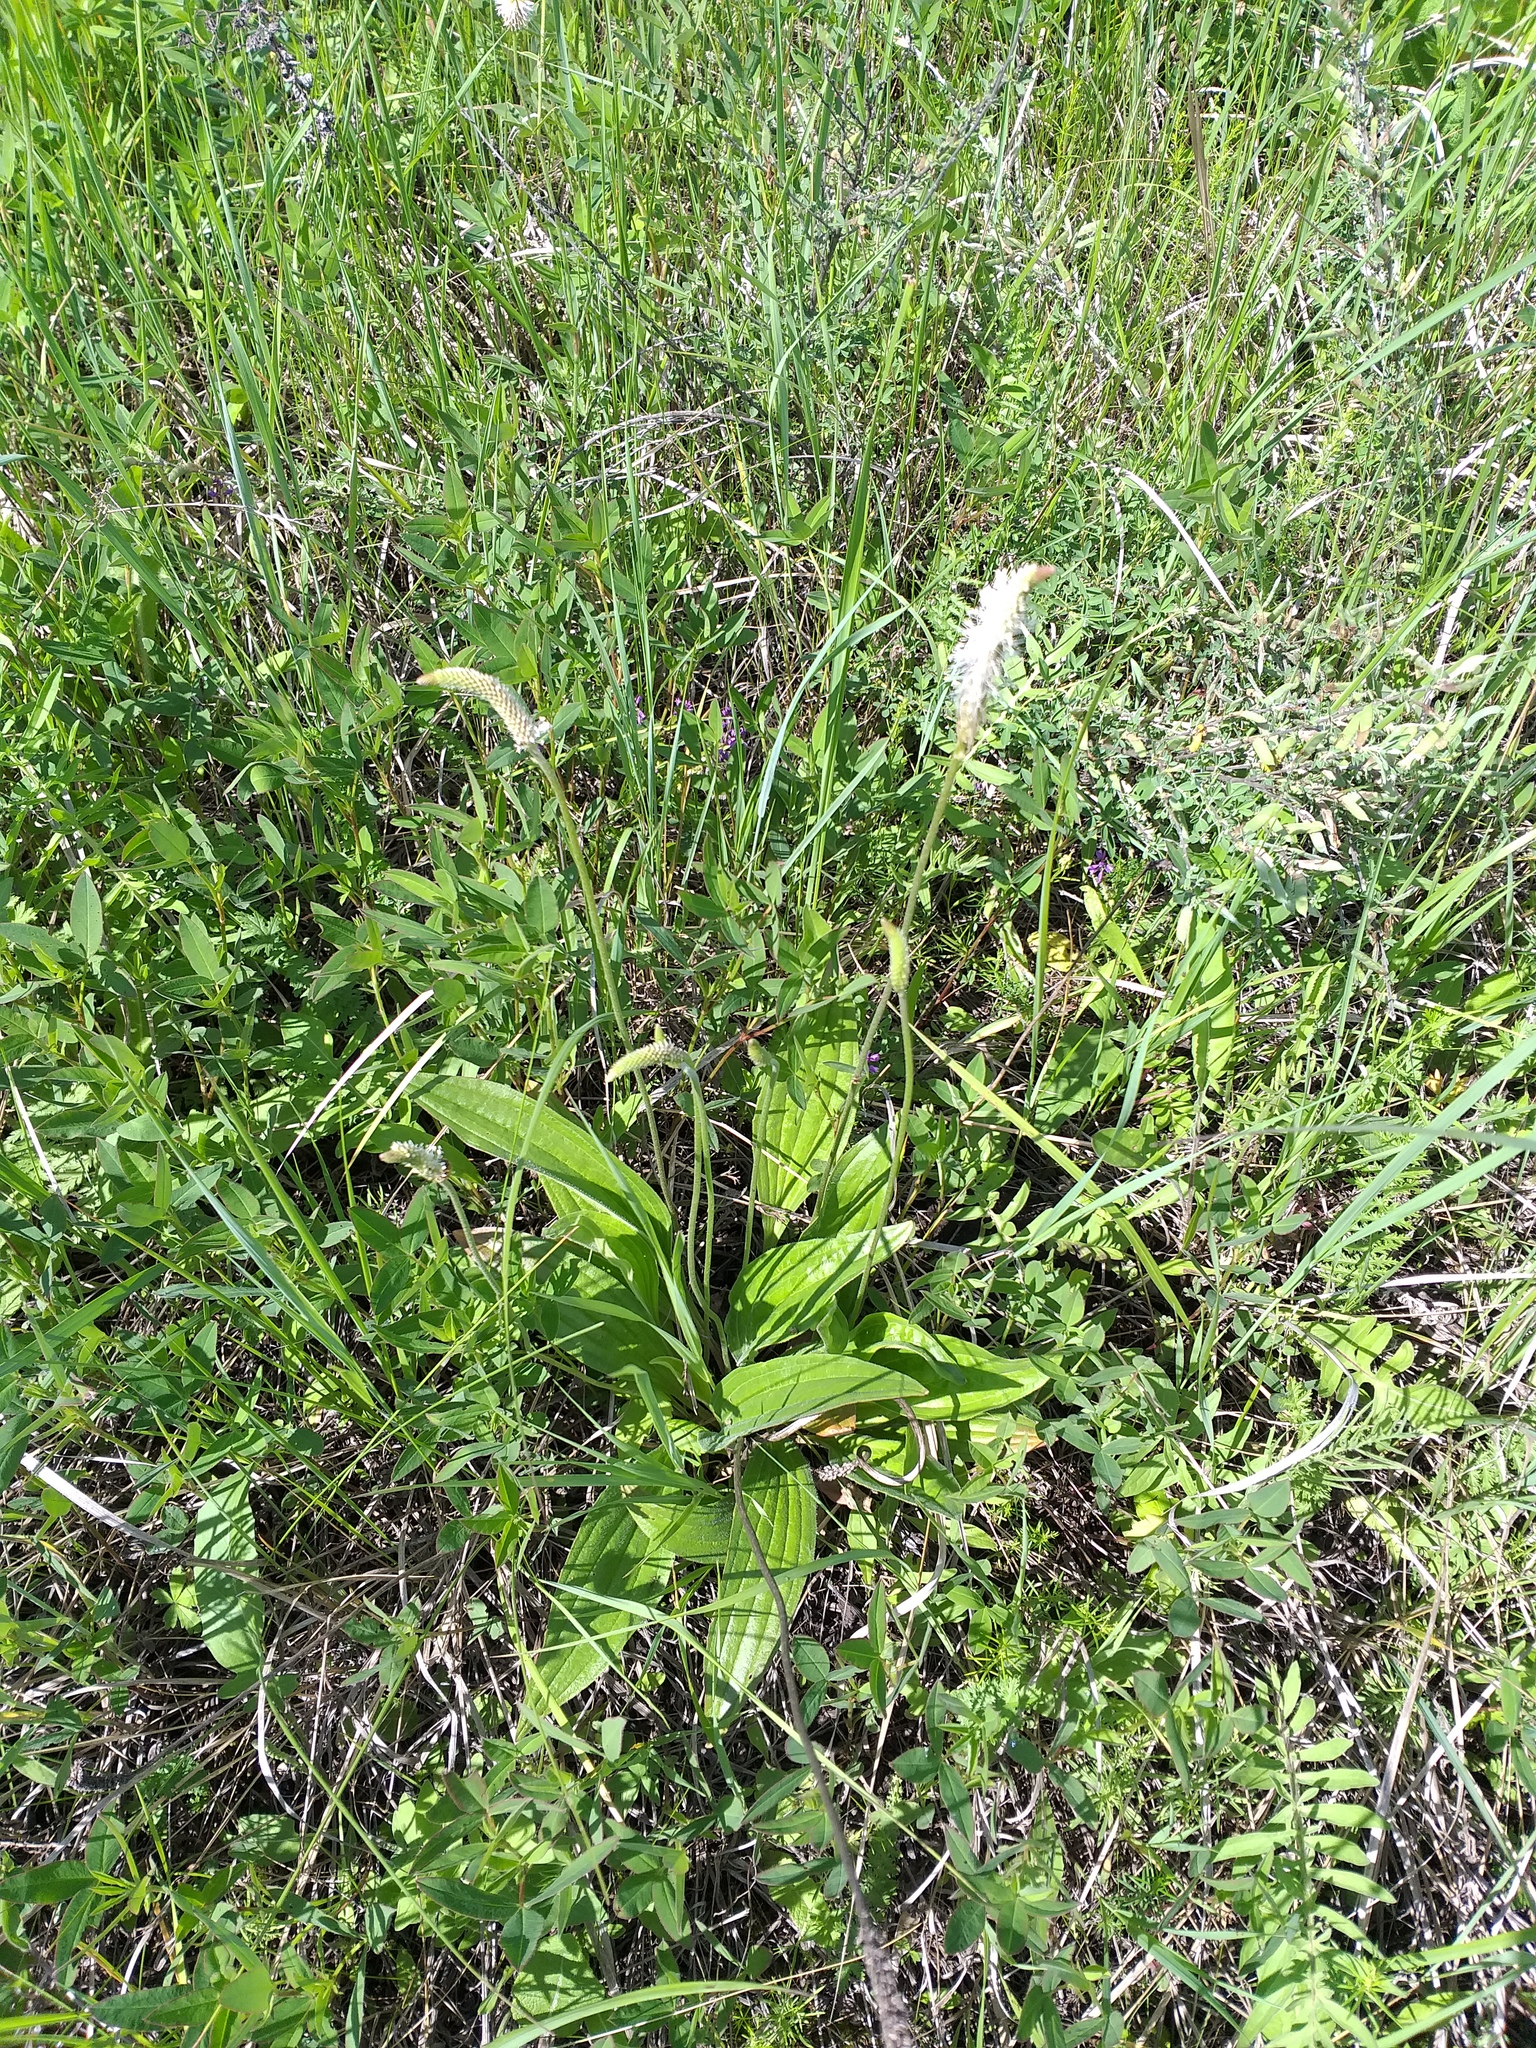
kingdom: Plantae
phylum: Tracheophyta
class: Magnoliopsida
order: Lamiales
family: Plantaginaceae
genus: Plantago
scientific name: Plantago urvillei
